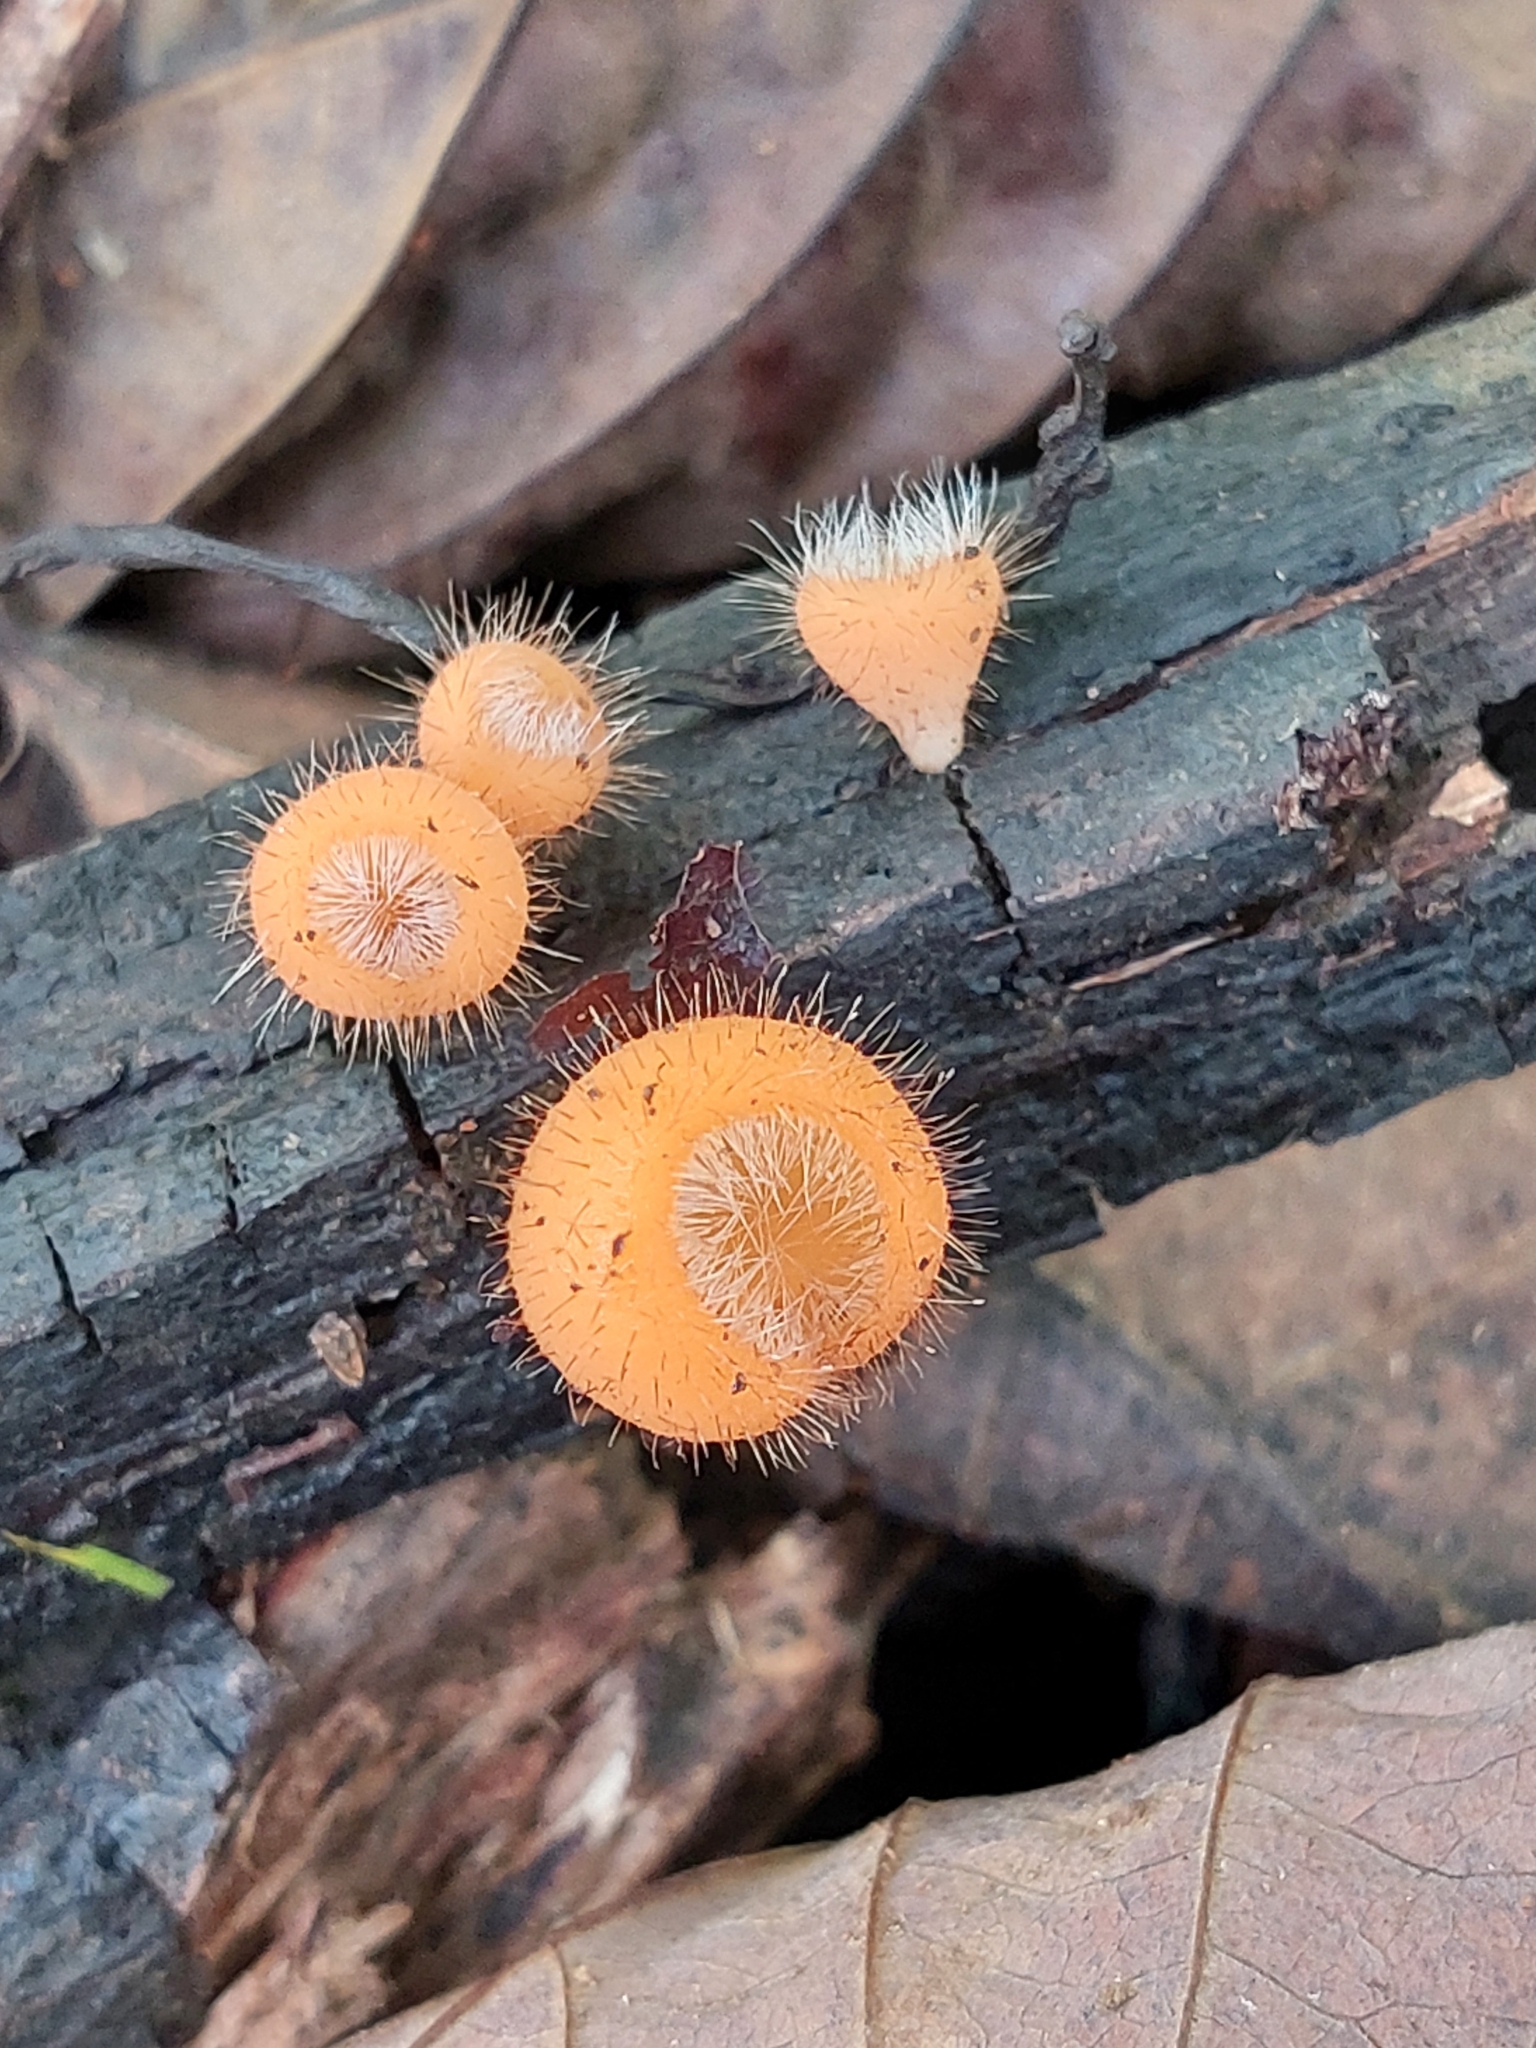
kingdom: Fungi
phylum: Ascomycota
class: Pezizomycetes
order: Pezizales
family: Sarcoscyphaceae
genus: Cookeina
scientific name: Cookeina tricholoma
